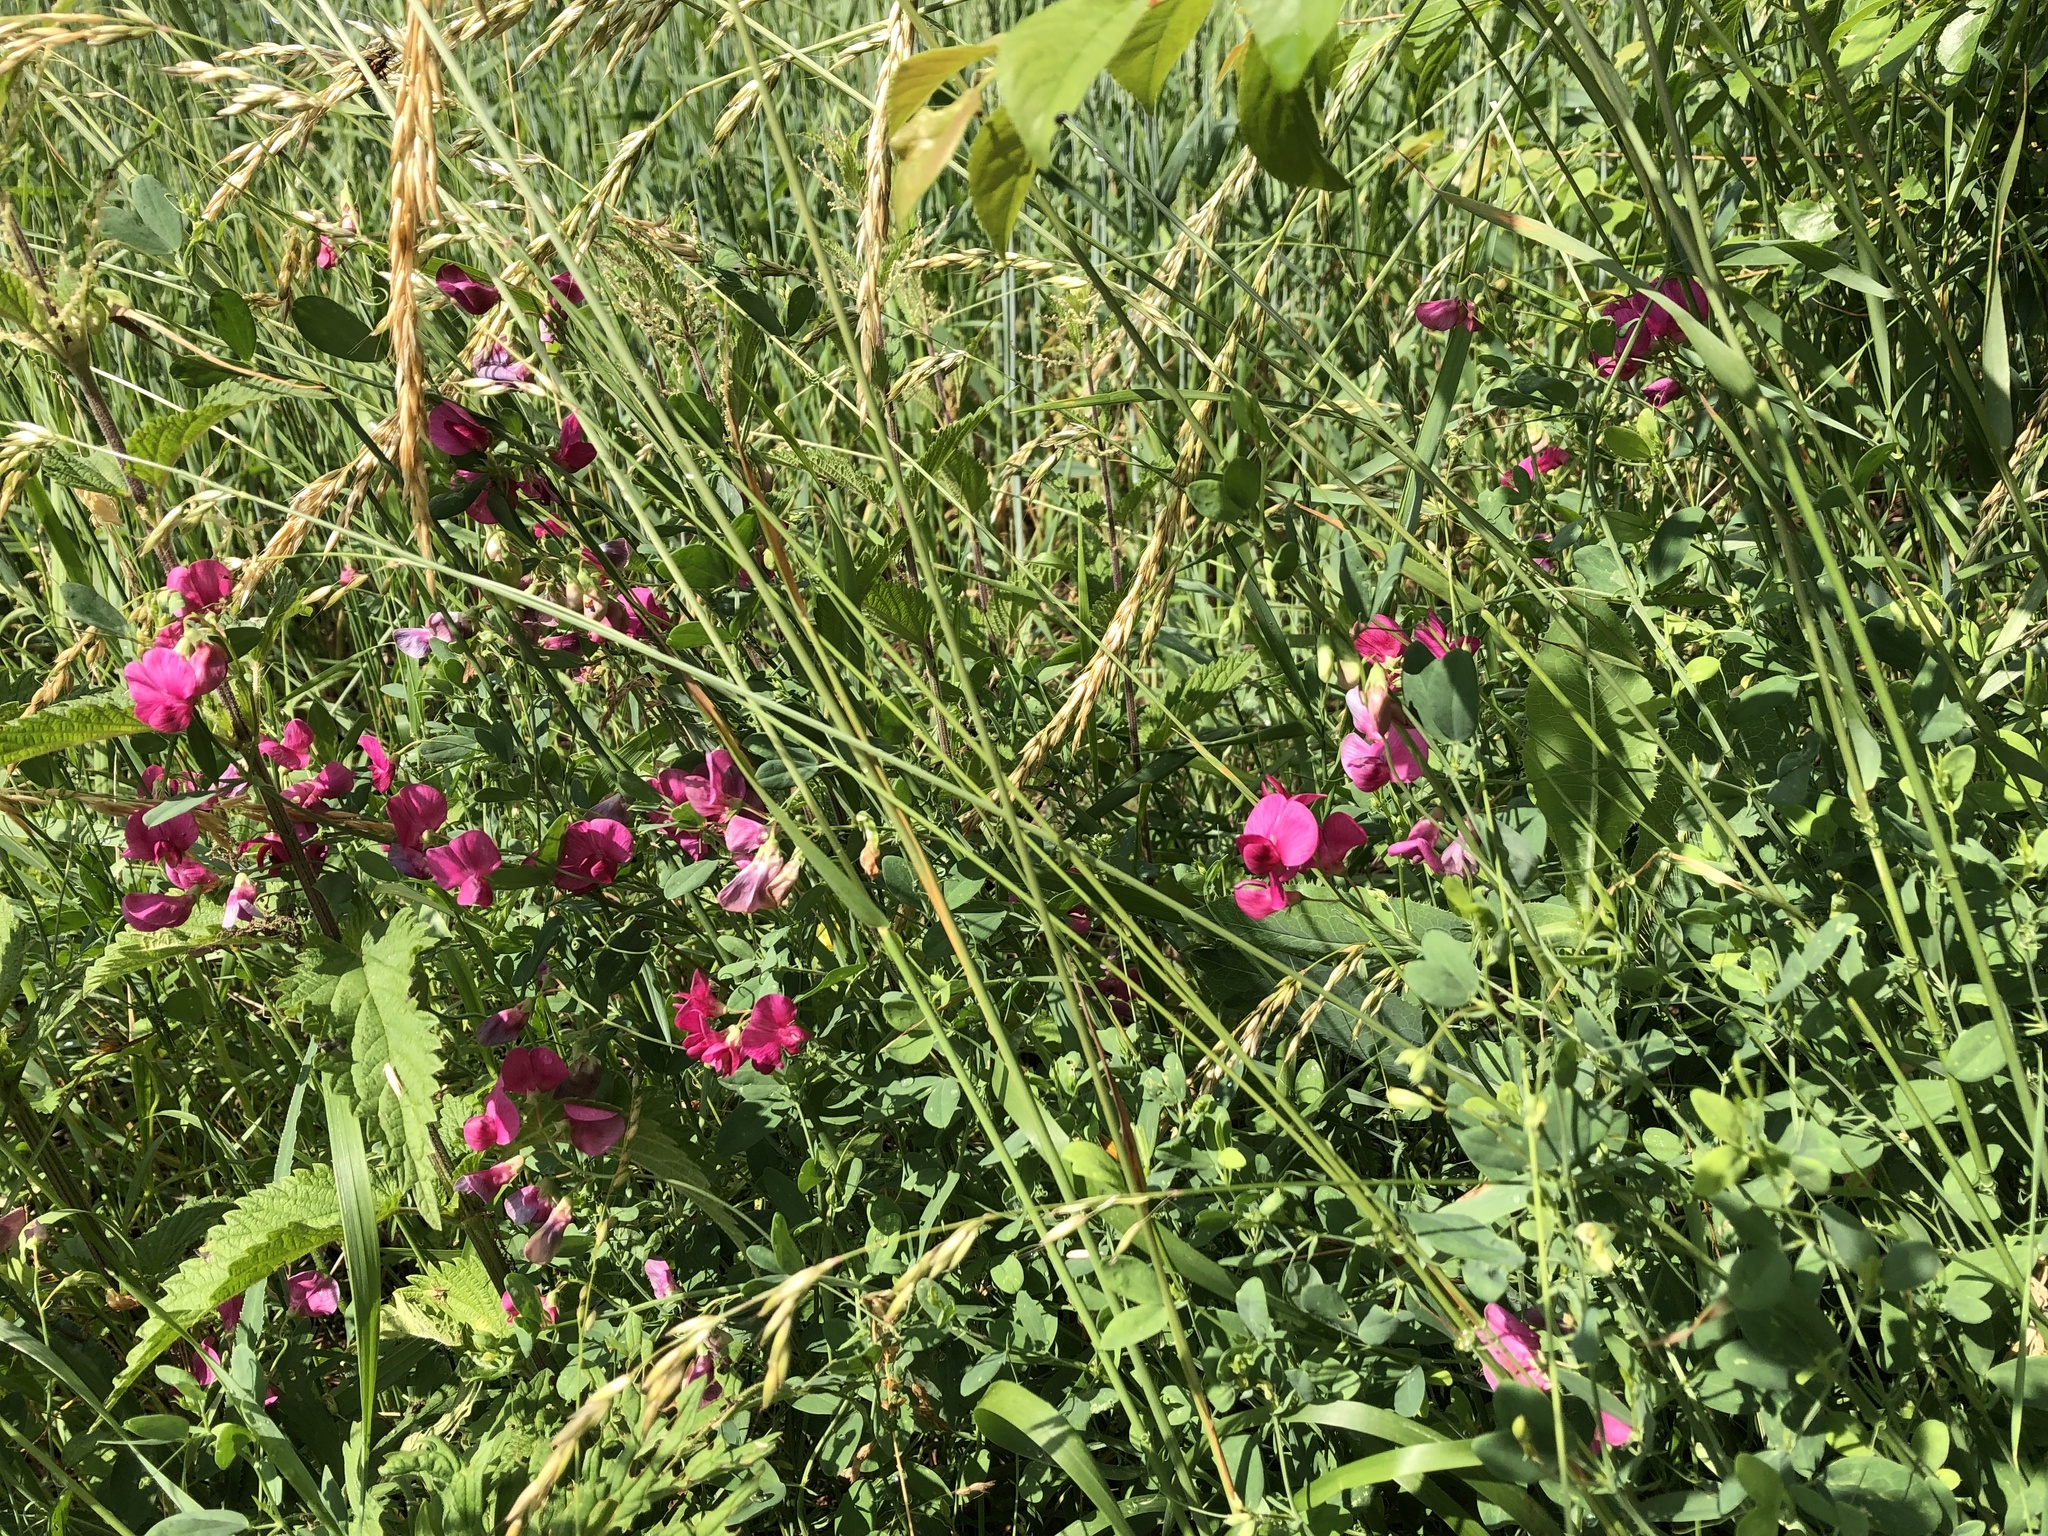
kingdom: Plantae
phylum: Tracheophyta
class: Magnoliopsida
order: Fabales
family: Fabaceae
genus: Lathyrus
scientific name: Lathyrus tuberosus
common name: Tuberous pea
